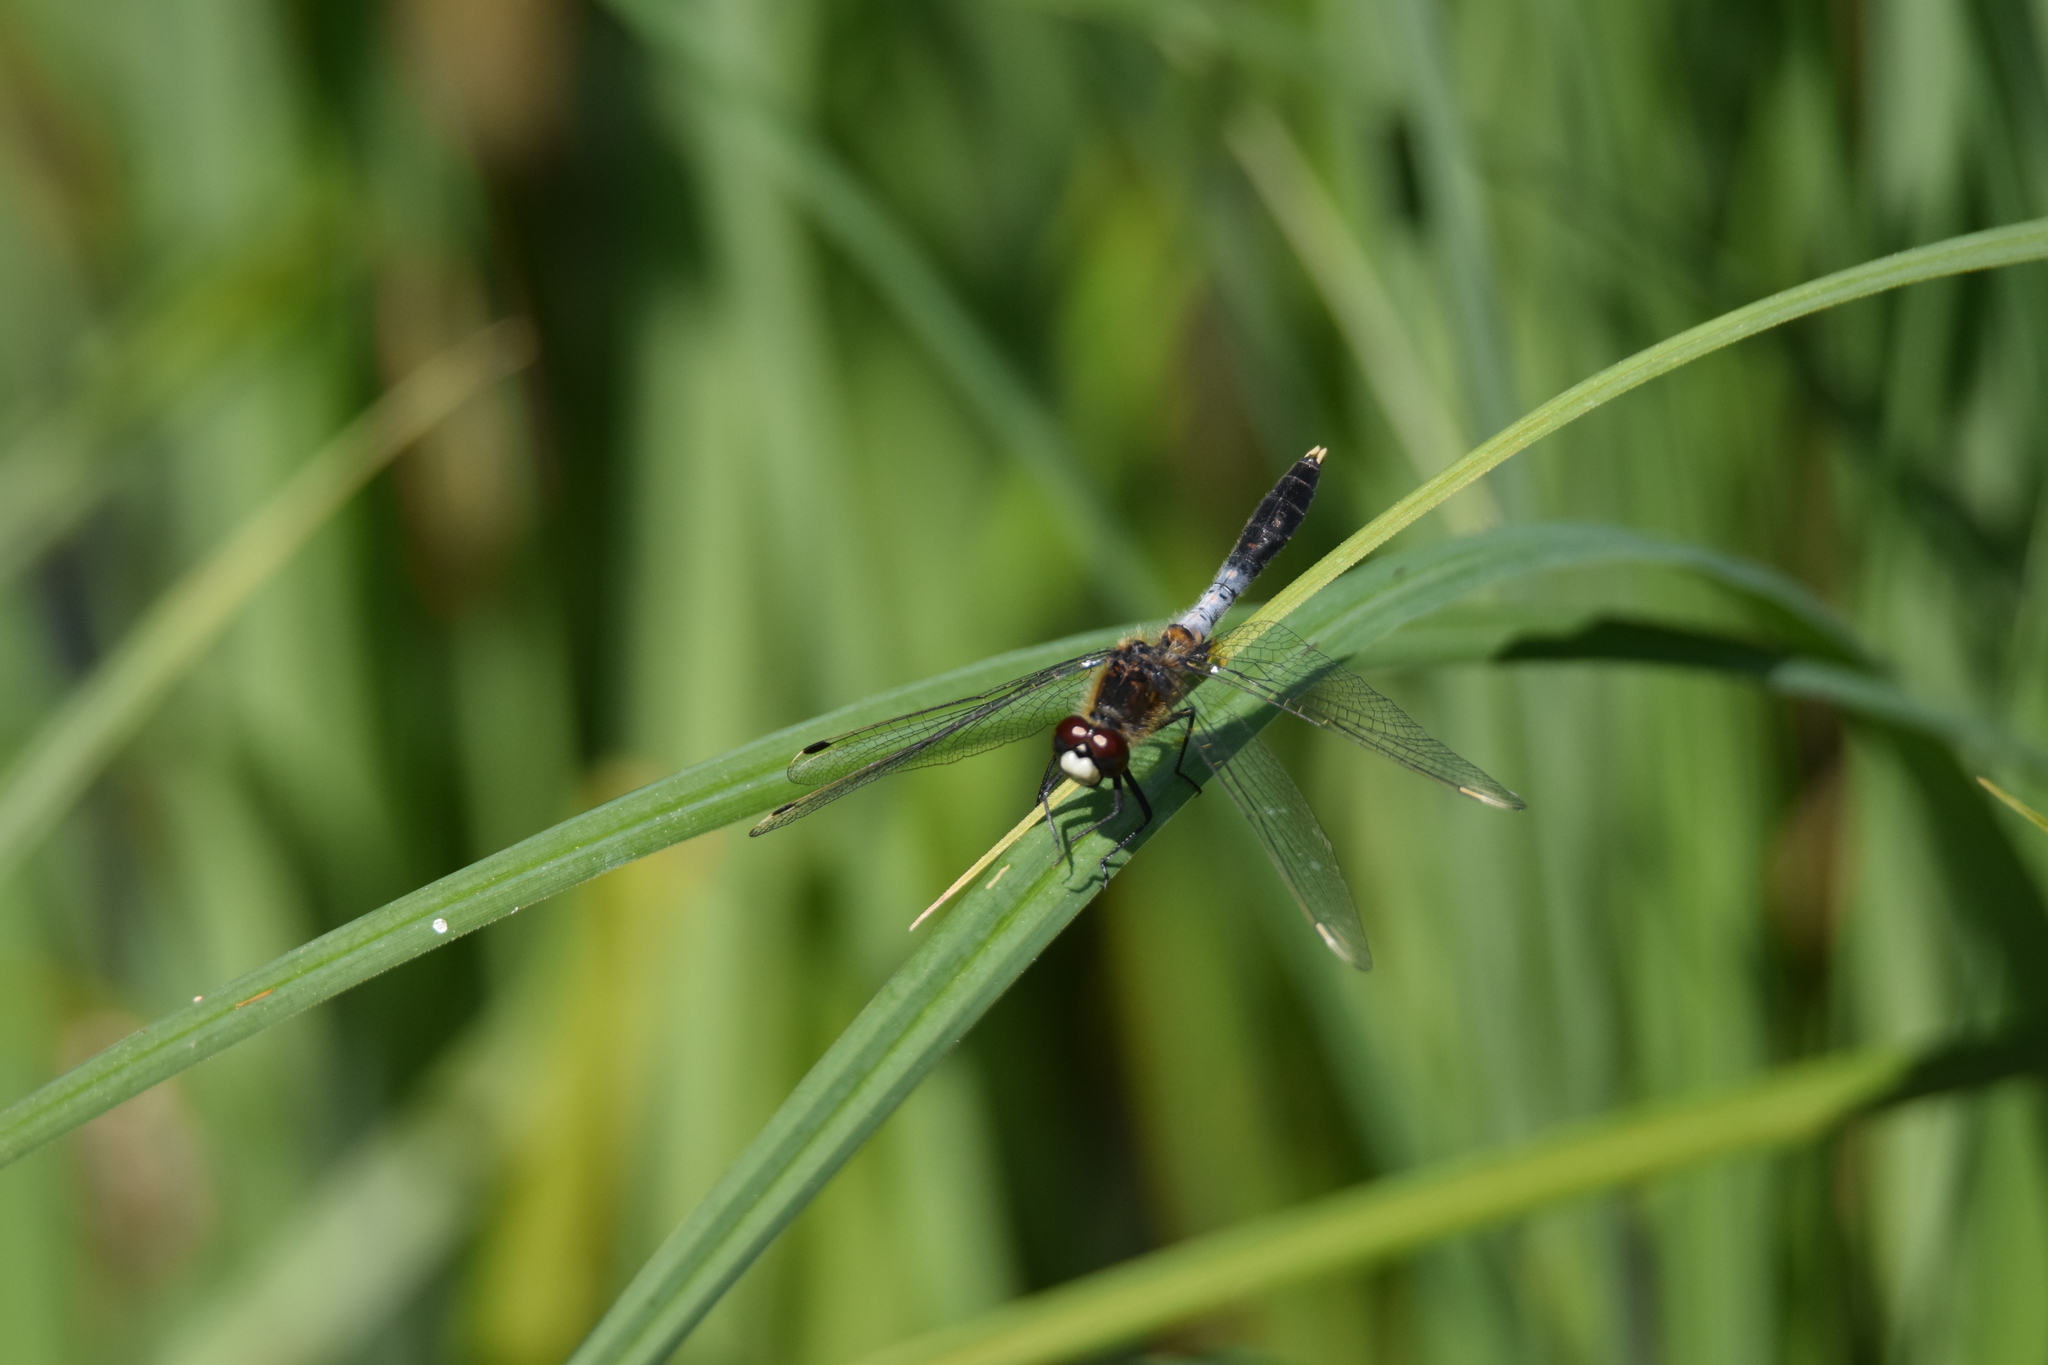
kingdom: Animalia
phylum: Arthropoda
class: Insecta
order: Odonata
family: Libellulidae
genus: Leucorrhinia
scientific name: Leucorrhinia caudalis
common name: Lilypad whiteface
